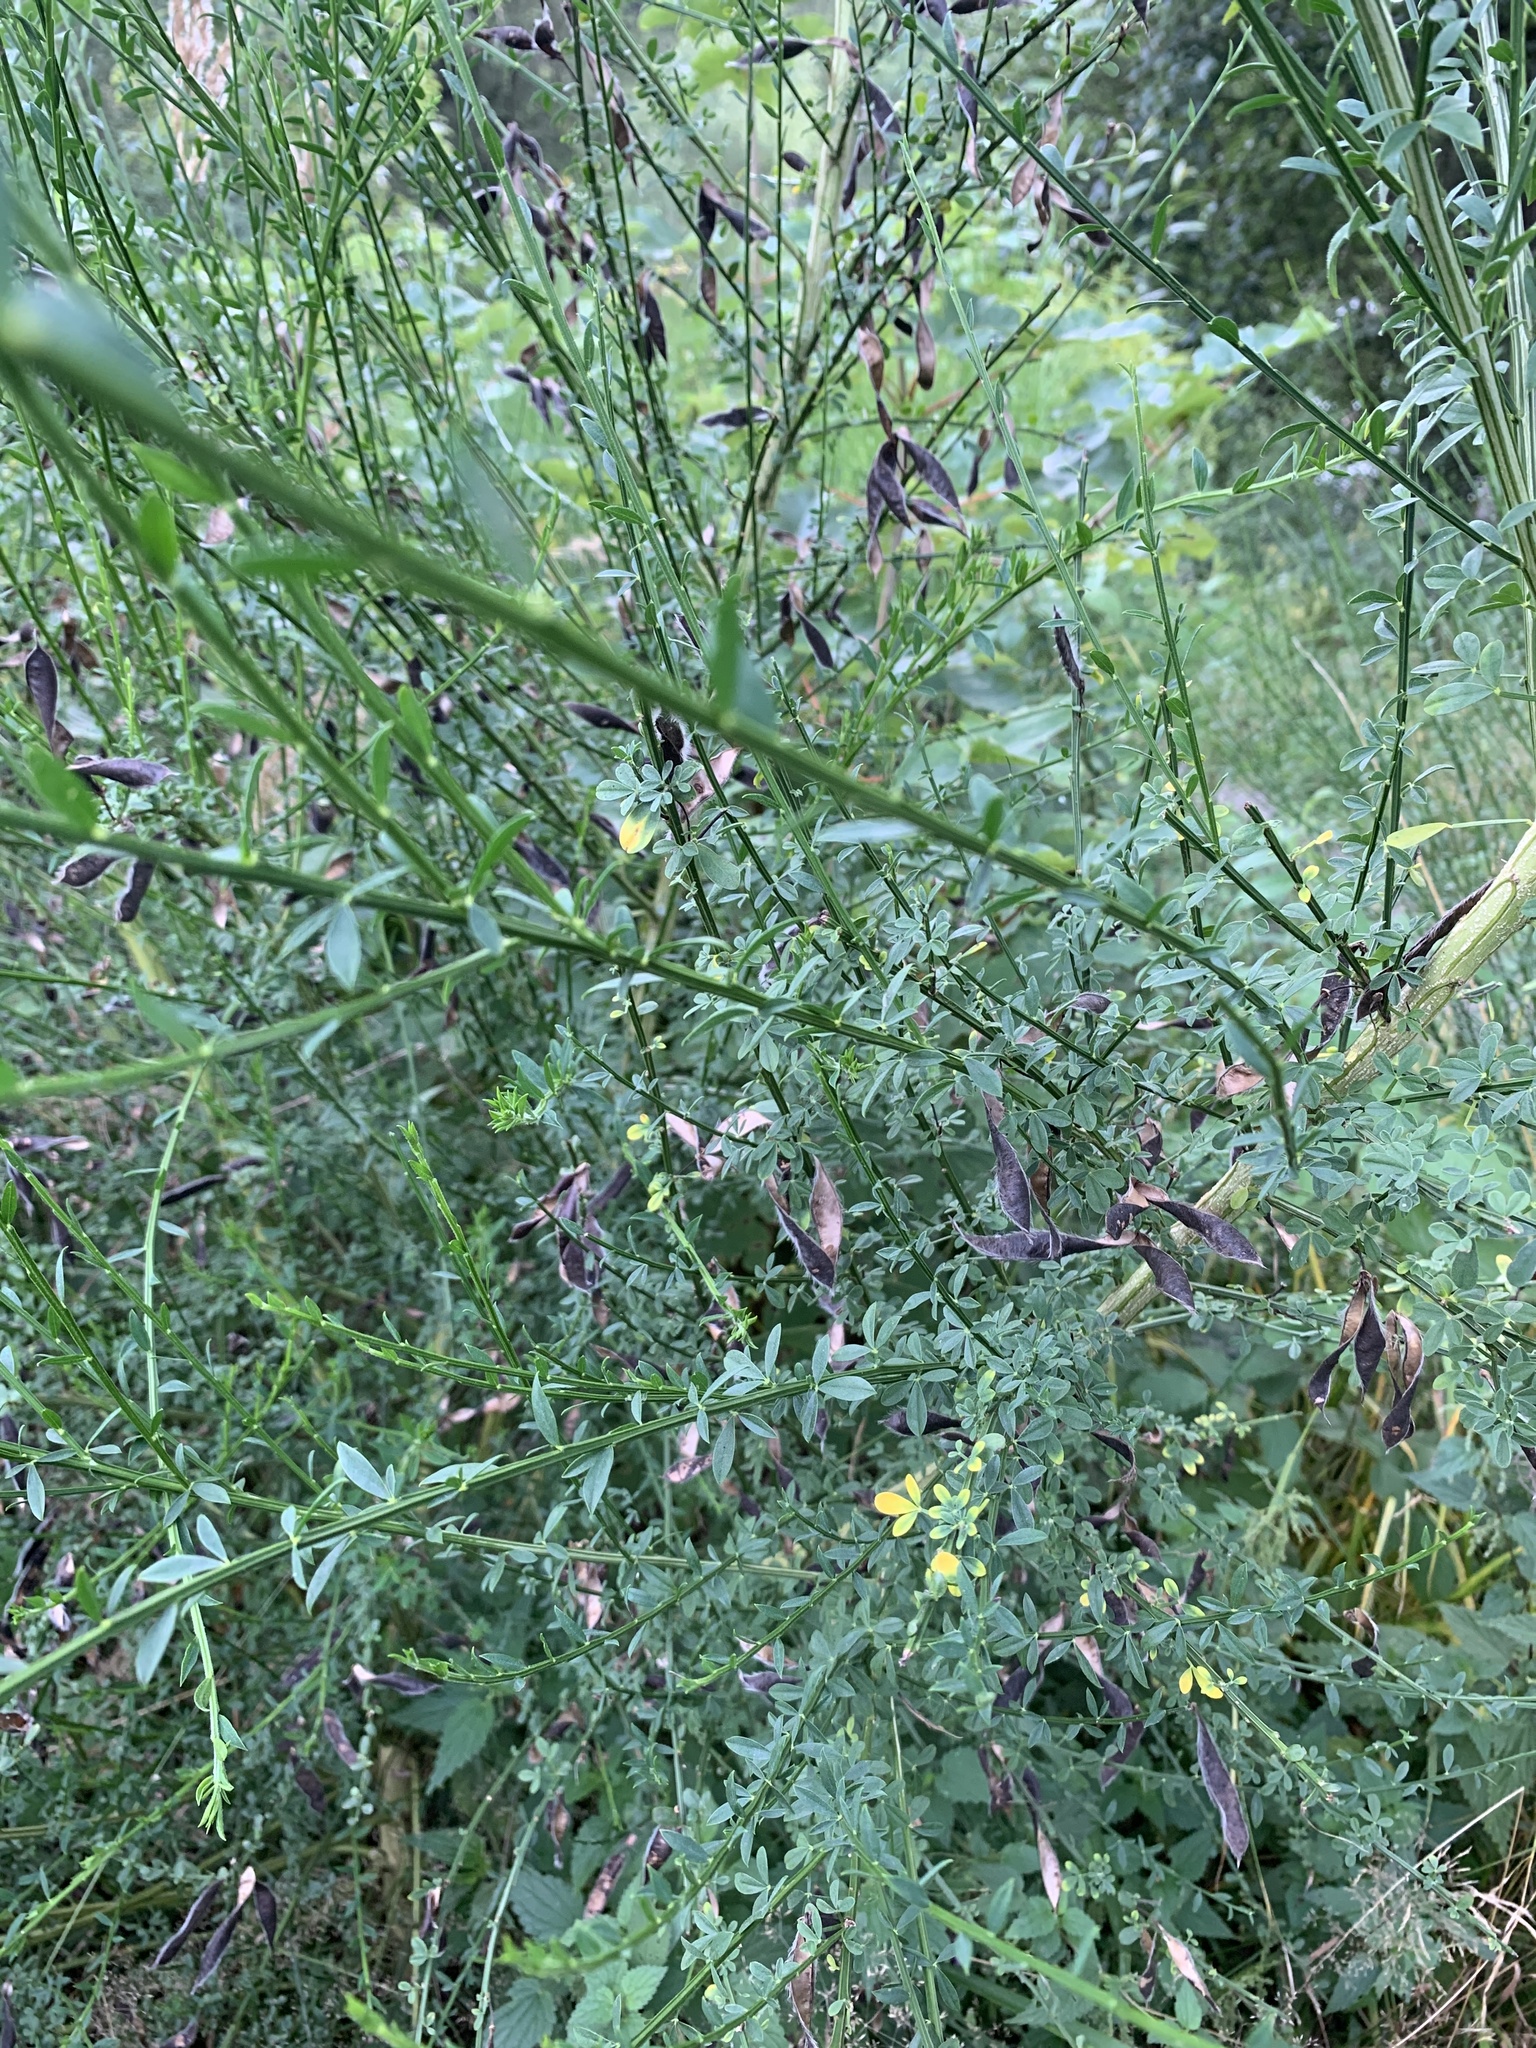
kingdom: Plantae
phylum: Tracheophyta
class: Magnoliopsida
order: Fabales
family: Fabaceae
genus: Cytisus
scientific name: Cytisus scoparius
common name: Scotch broom
